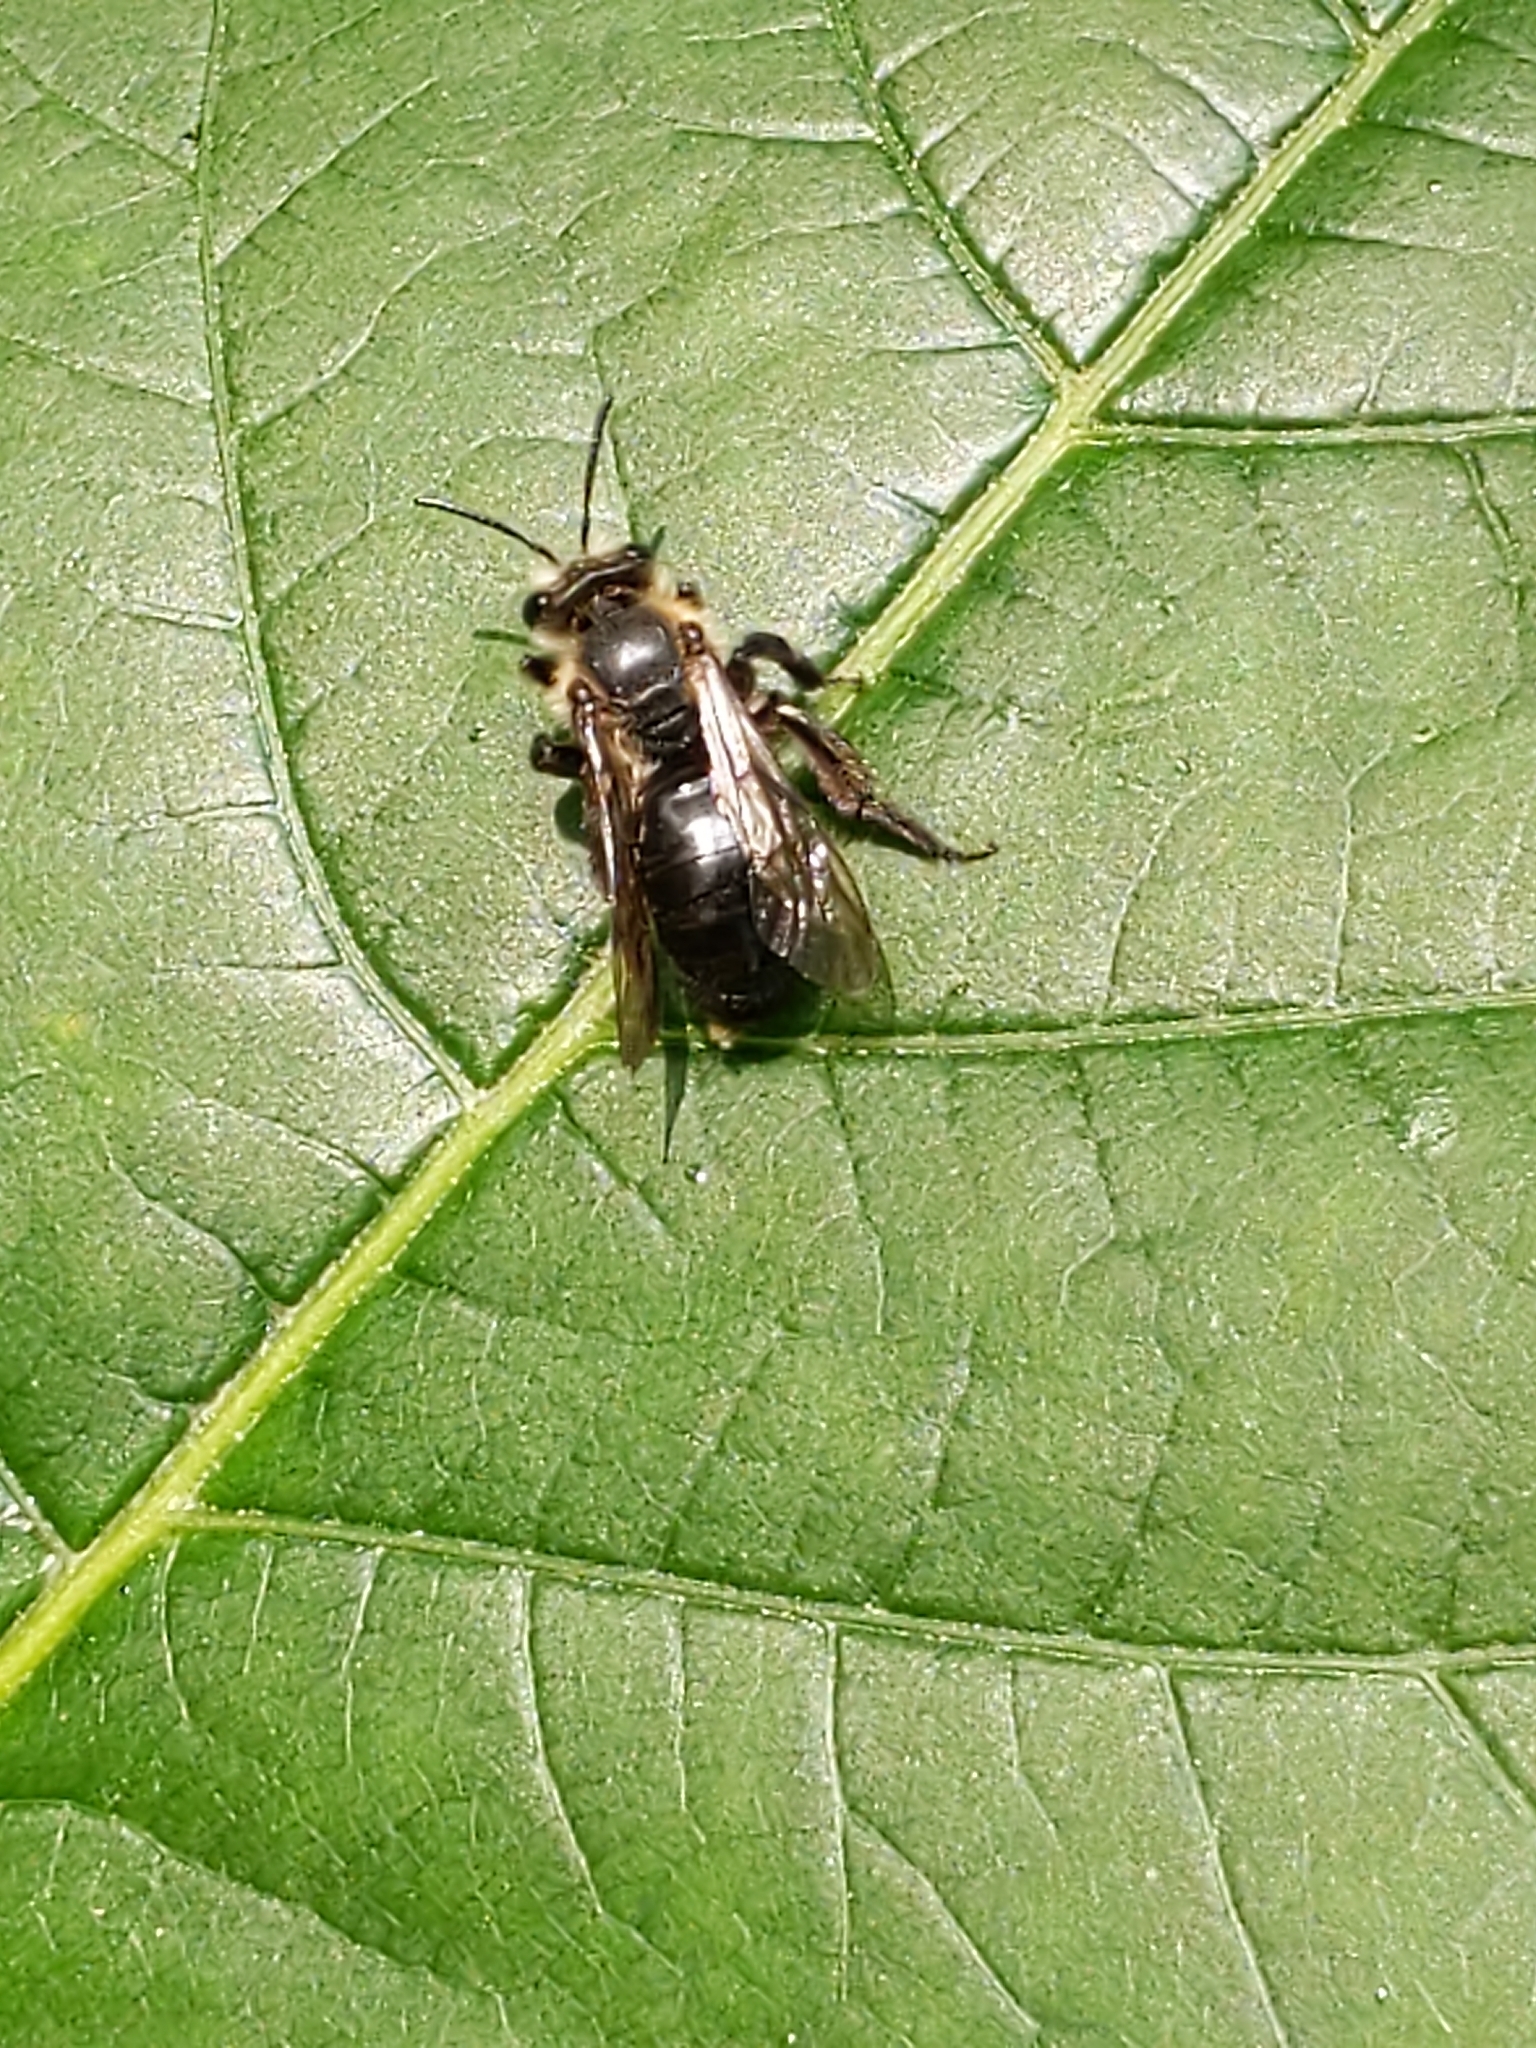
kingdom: Animalia
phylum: Arthropoda
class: Insecta
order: Hymenoptera
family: Andrenidae
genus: Andrena
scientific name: Andrena vicina
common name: Neighborly mining bee
